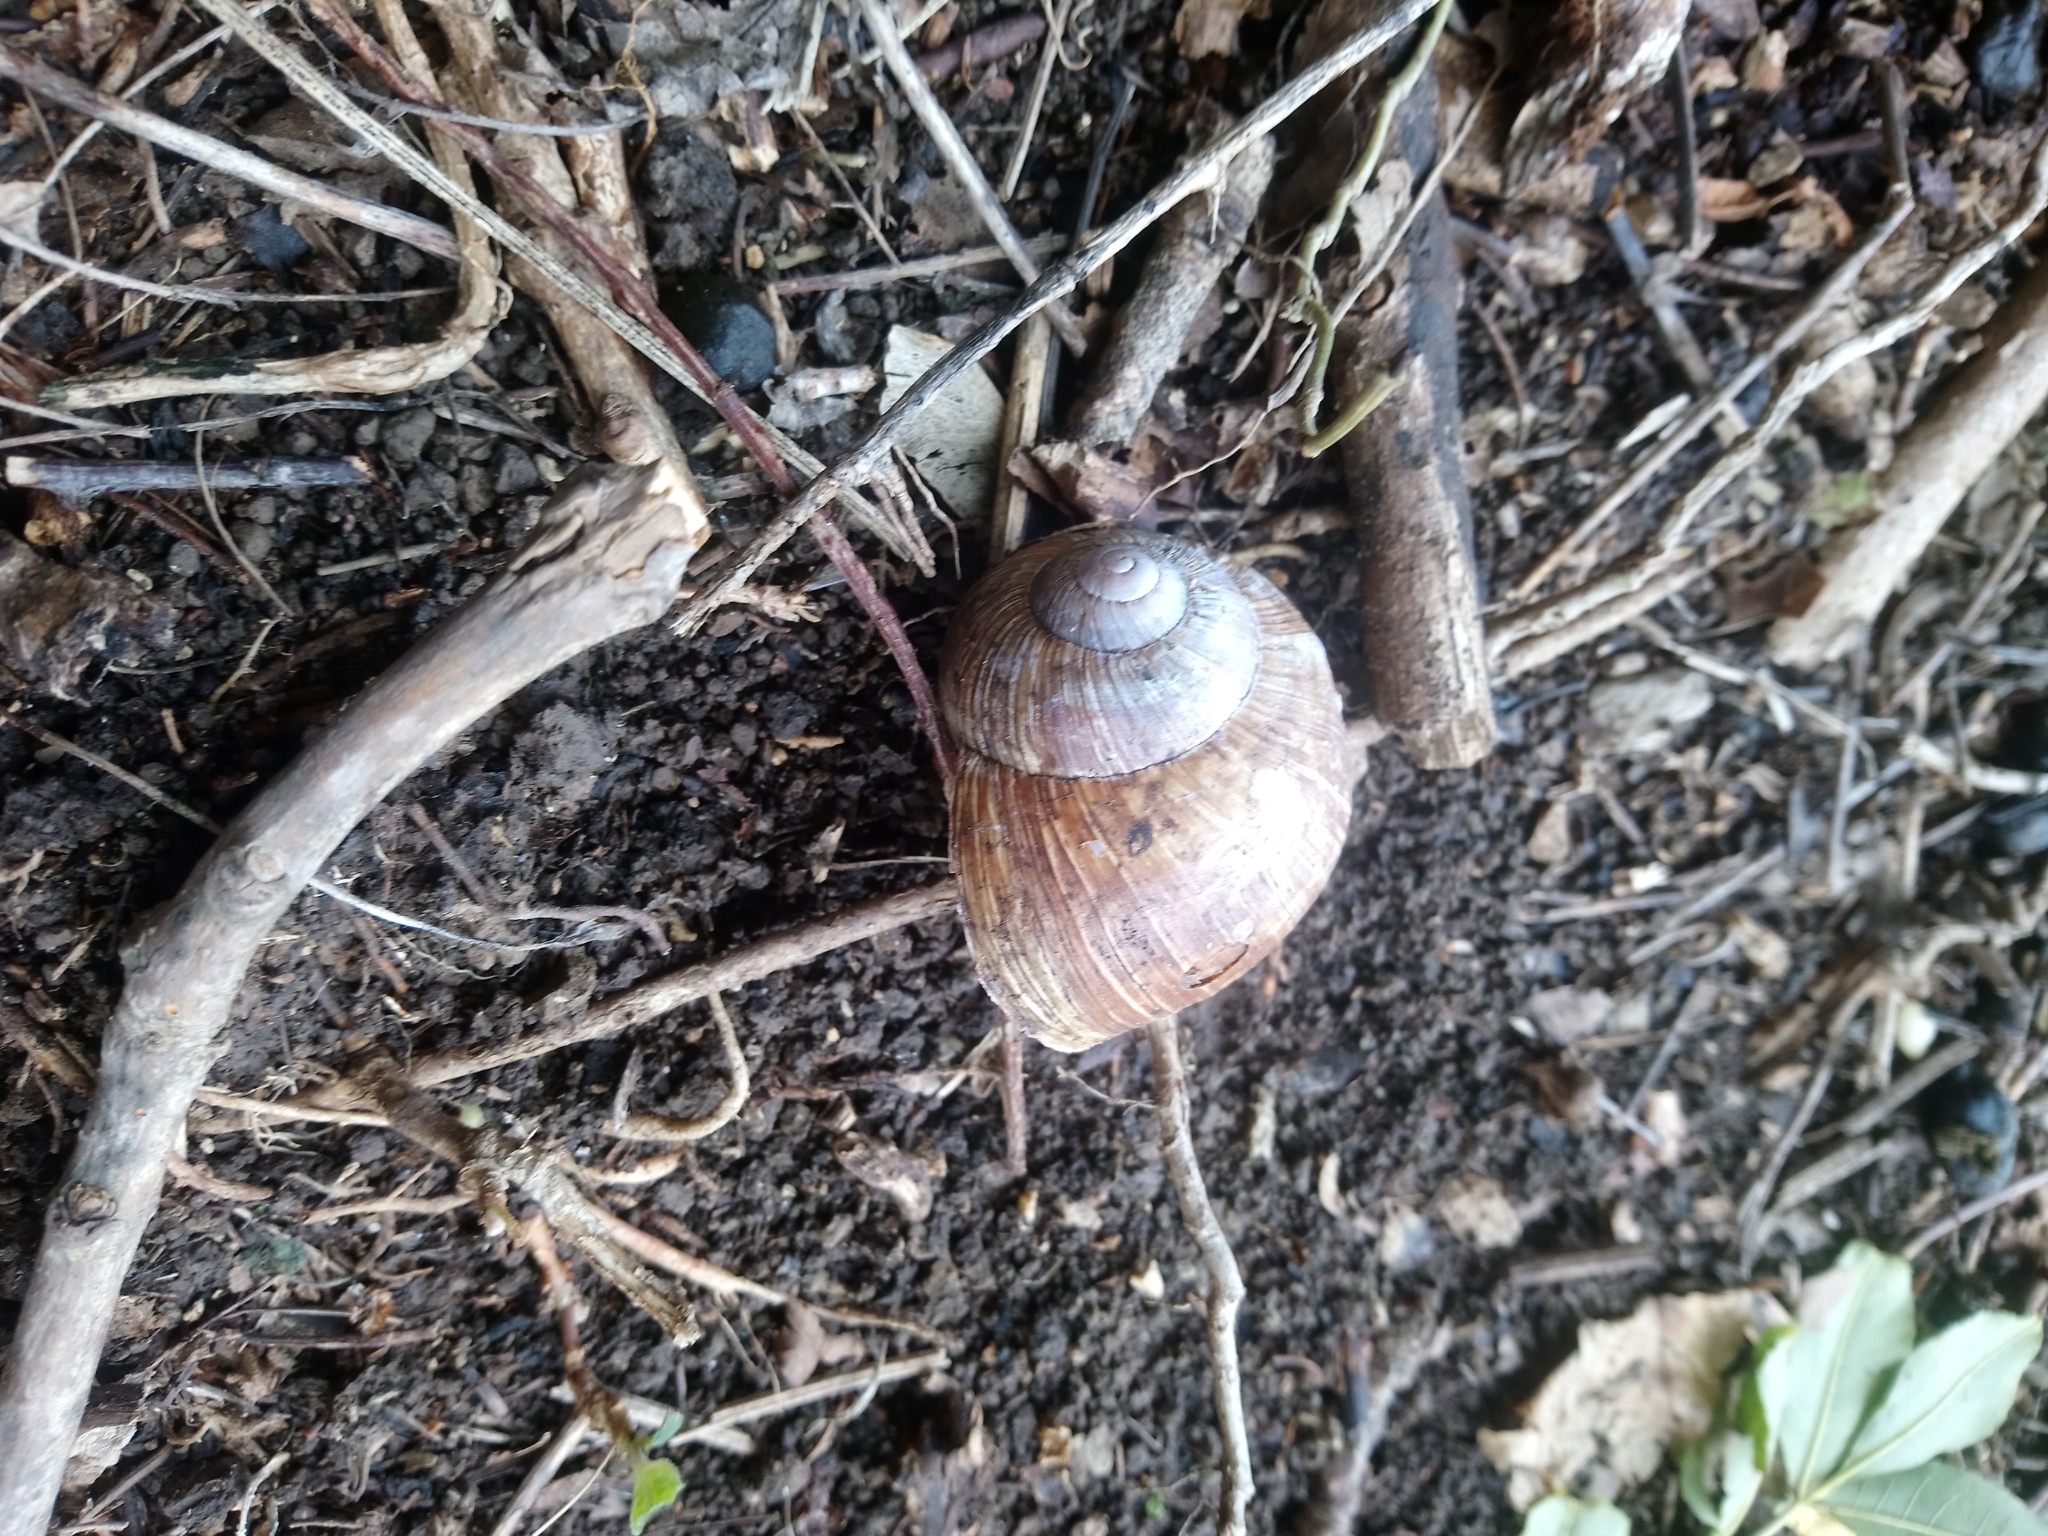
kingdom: Animalia
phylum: Mollusca
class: Gastropoda
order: Stylommatophora
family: Helicidae
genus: Helix
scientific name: Helix pomatia
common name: Roman snail
